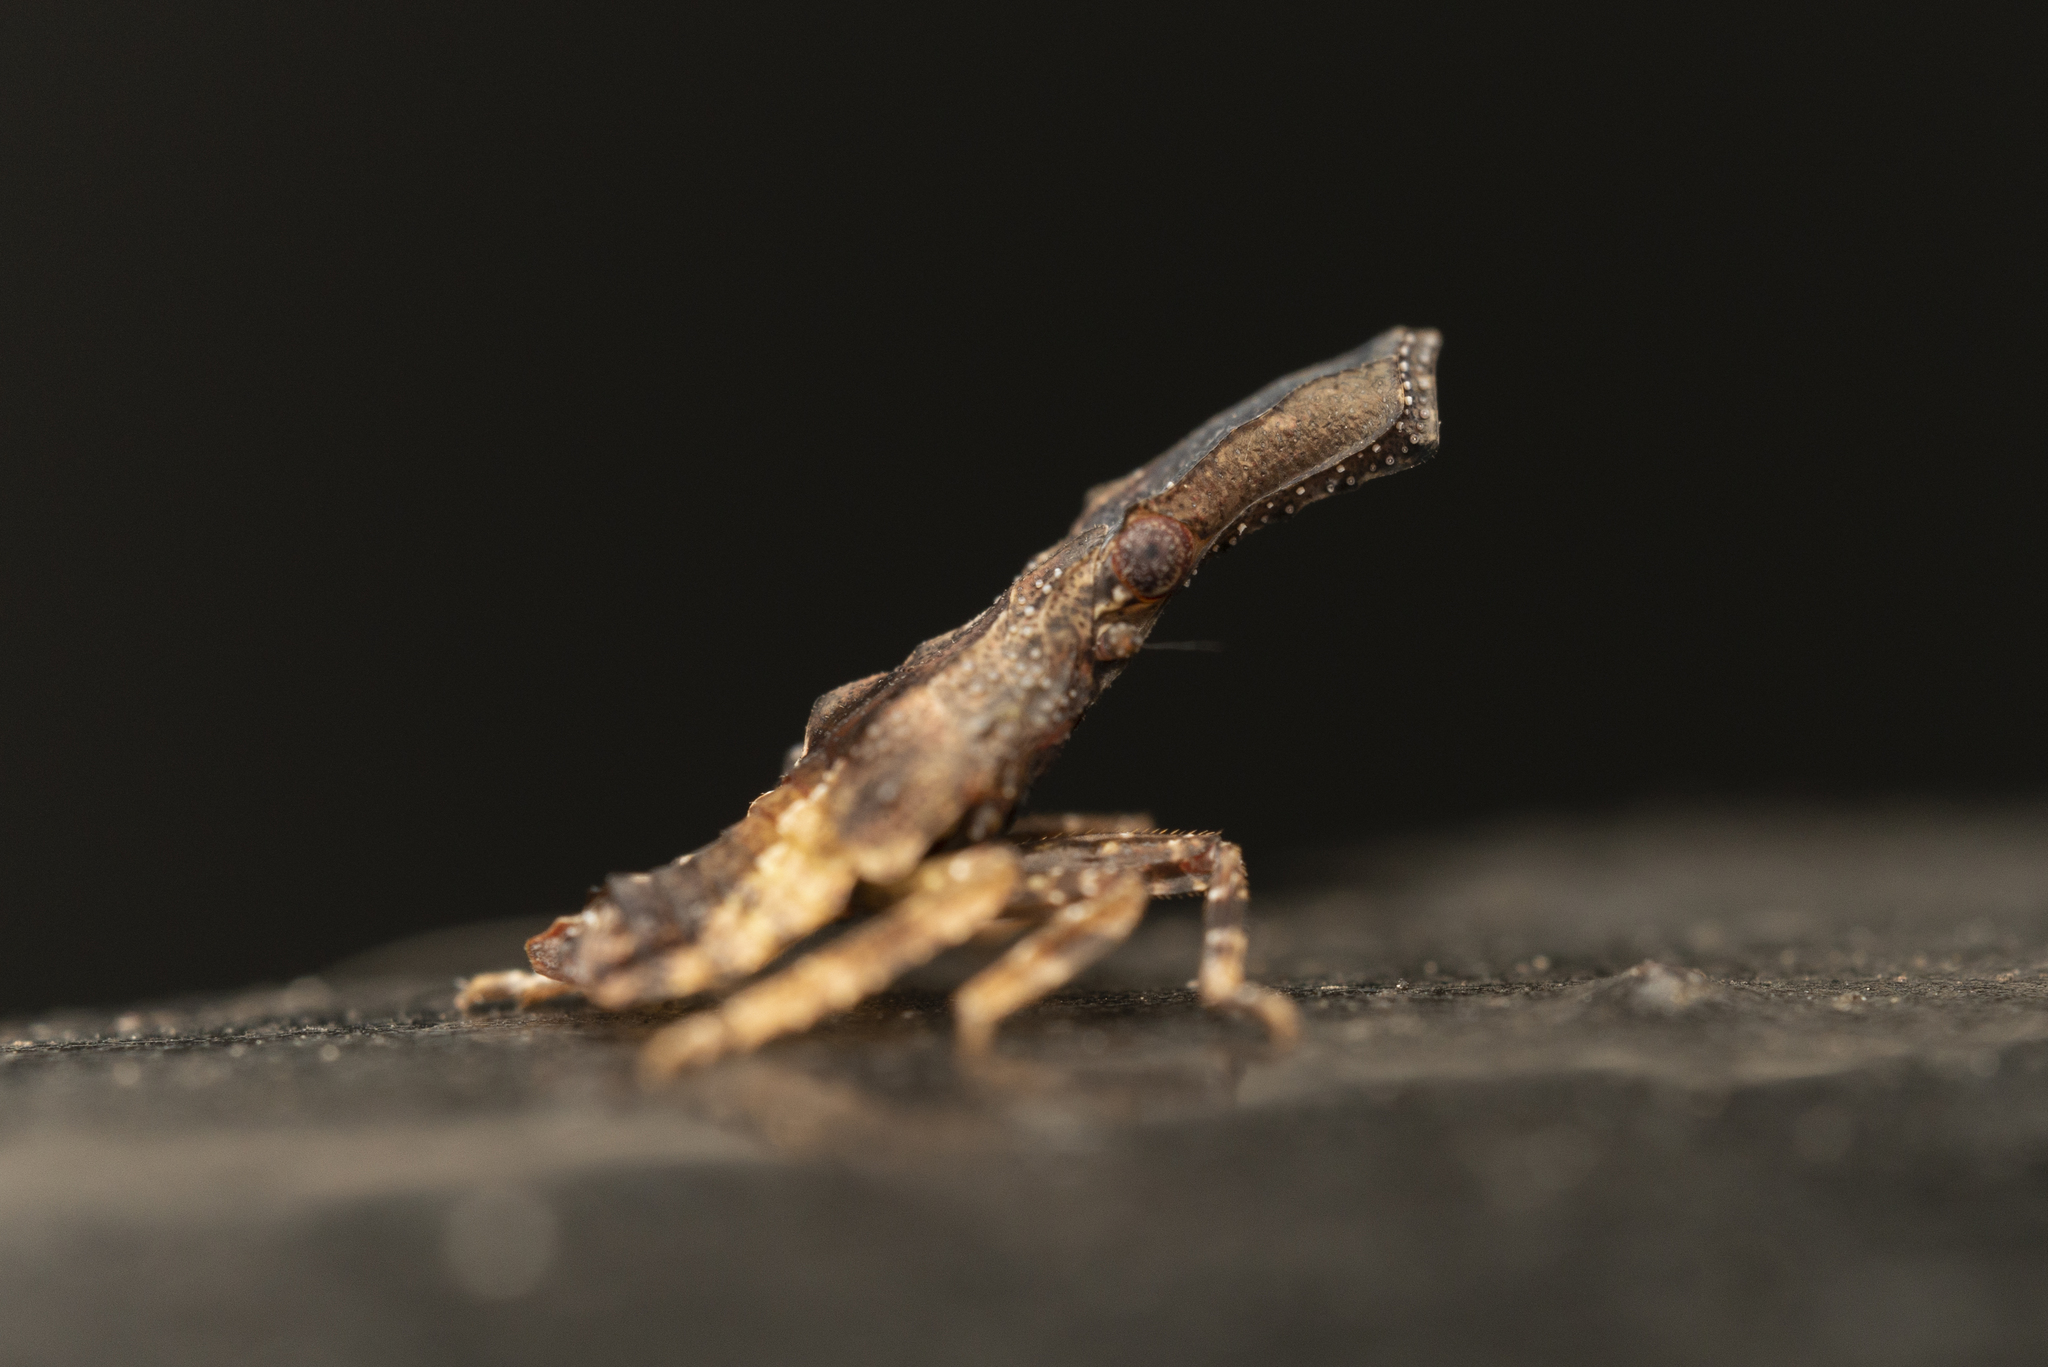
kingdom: Animalia
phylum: Arthropoda
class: Insecta
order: Hemiptera
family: Fulgoridae
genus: Pyrops
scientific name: Pyrops candelaria
